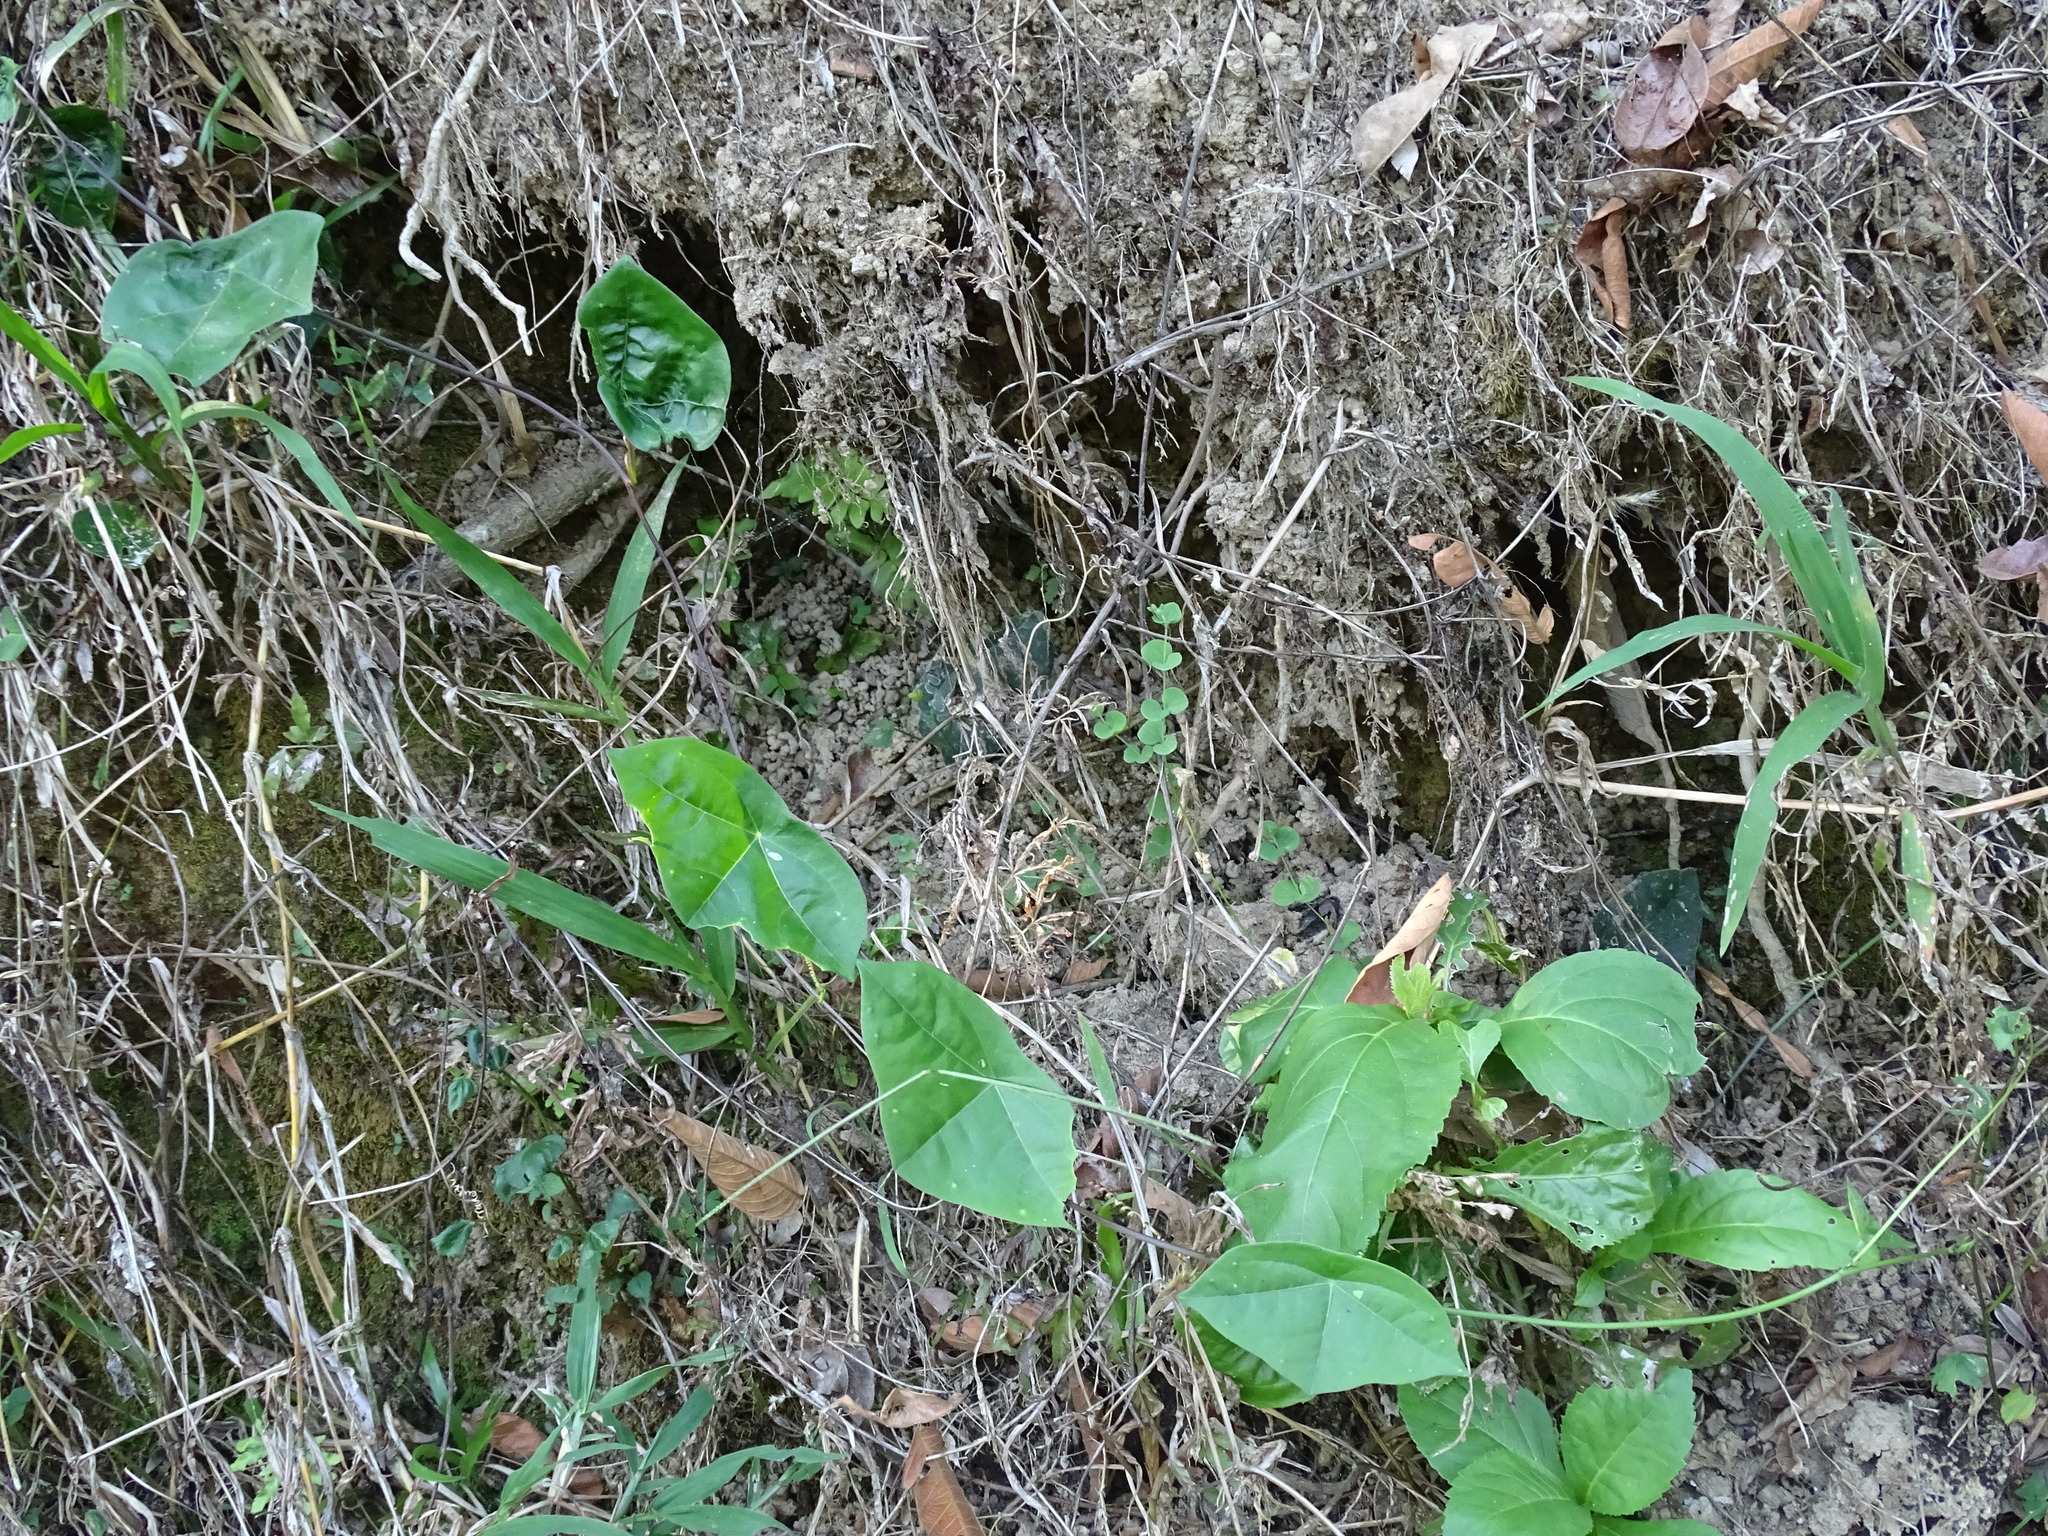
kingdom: Plantae
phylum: Tracheophyta
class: Magnoliopsida
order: Malpighiales
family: Passifloraceae
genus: Passiflora
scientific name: Passiflora sexocellata
